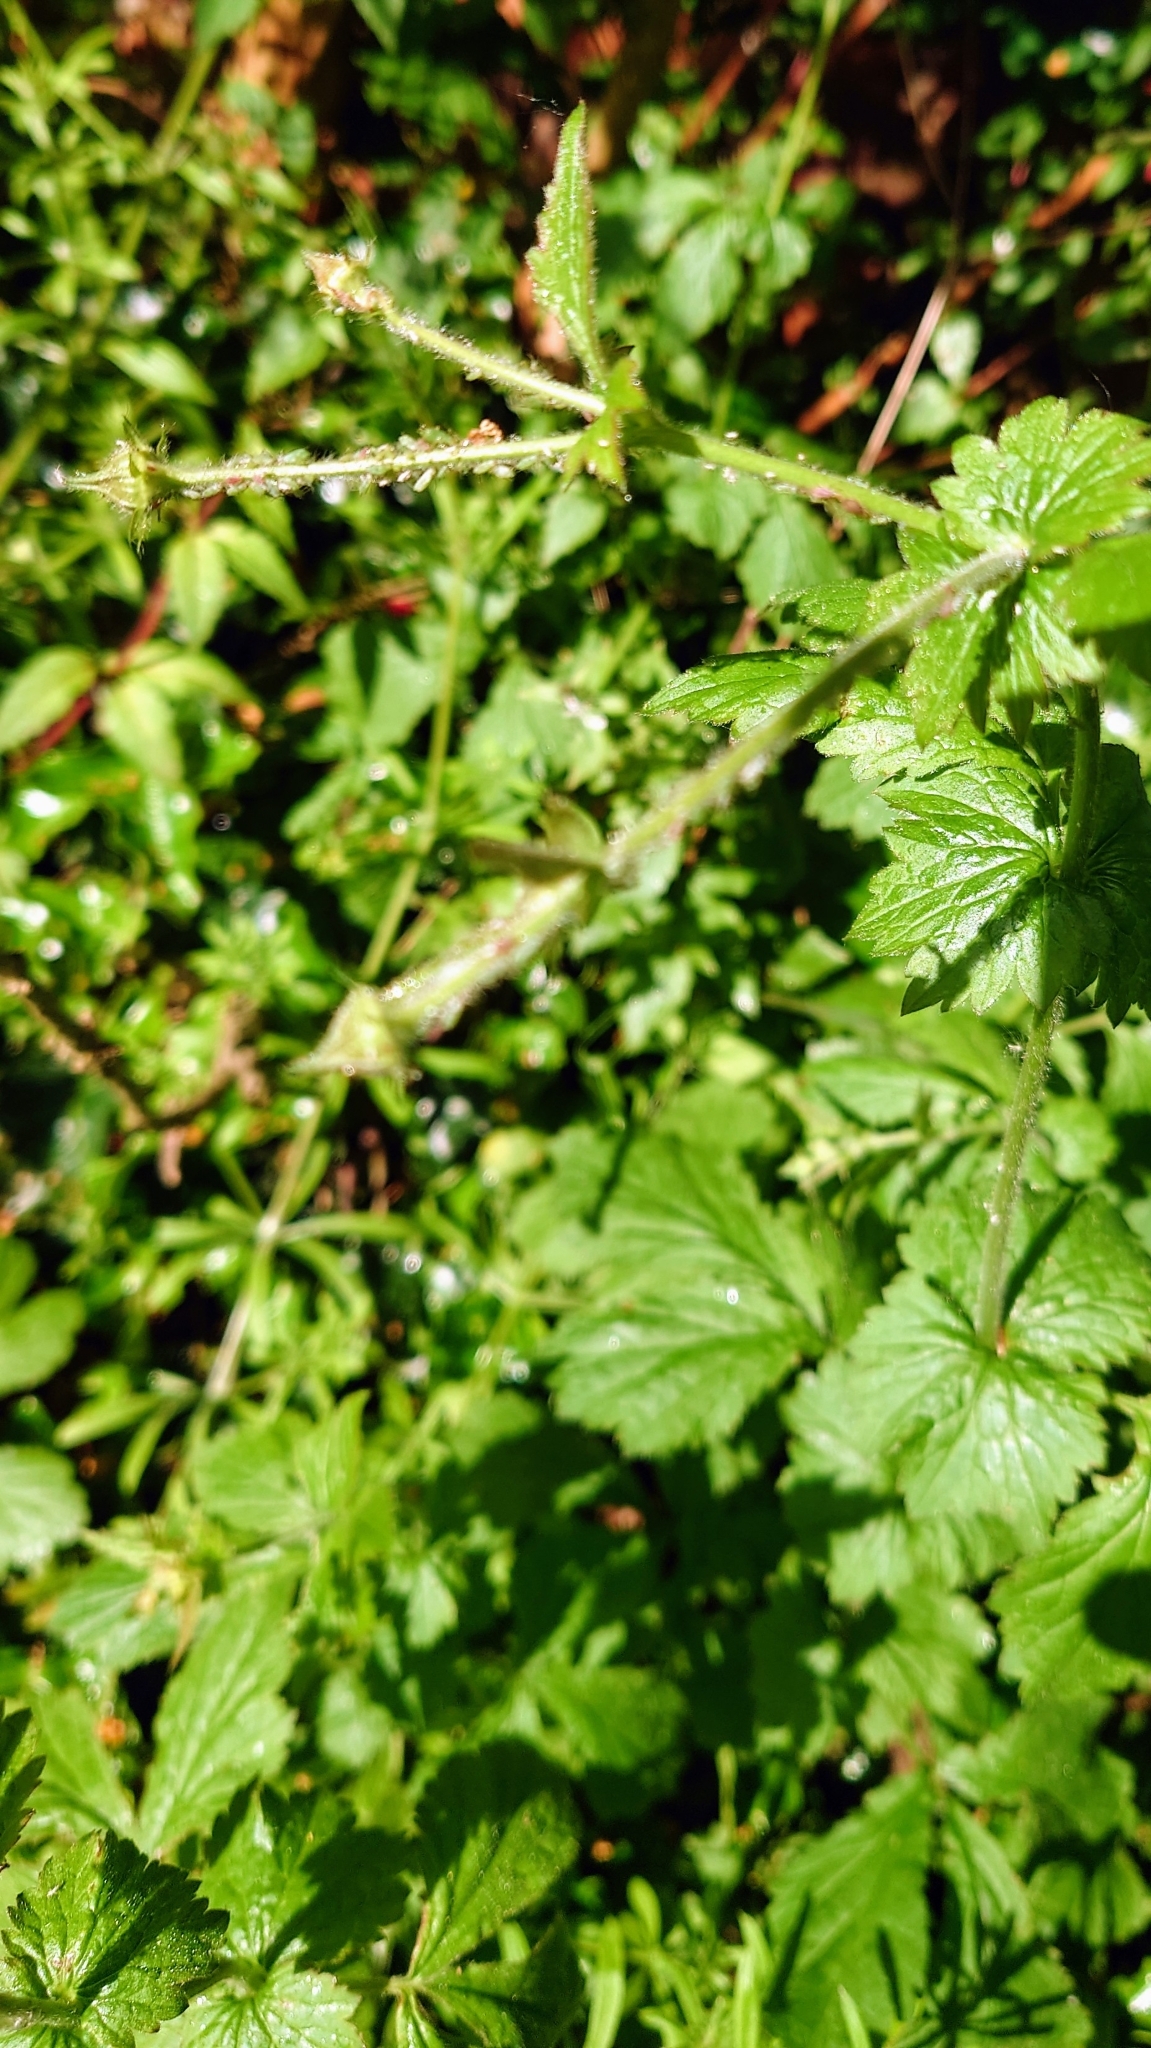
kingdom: Plantae
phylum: Tracheophyta
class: Magnoliopsida
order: Rosales
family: Rosaceae
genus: Geum
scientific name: Geum urbanum
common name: Wood avens
